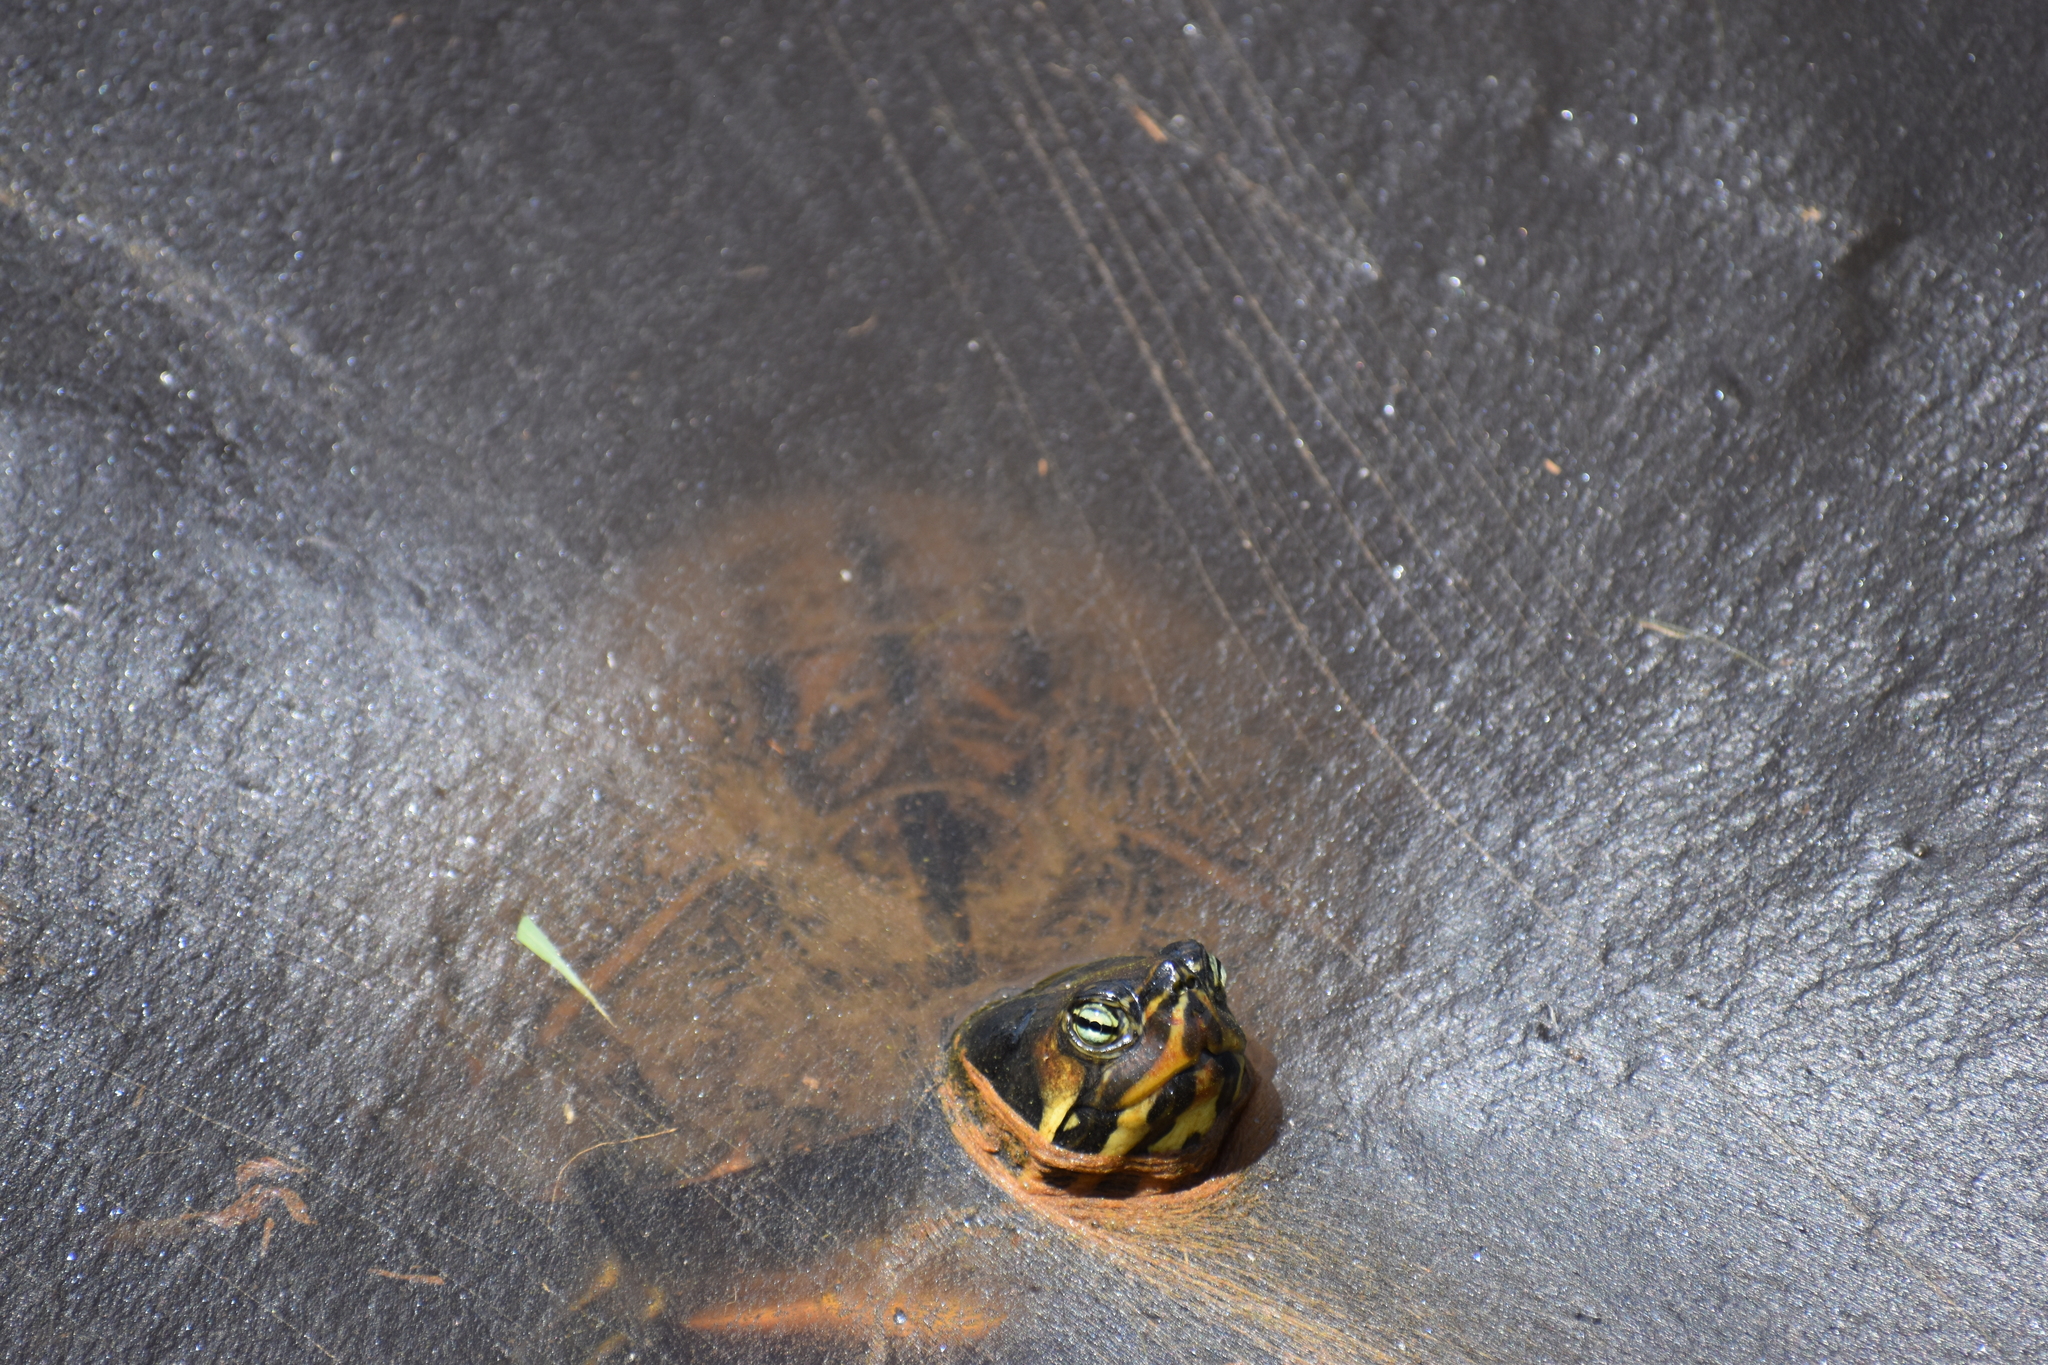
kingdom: Animalia
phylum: Chordata
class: Testudines
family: Emydidae
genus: Trachemys
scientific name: Trachemys scripta
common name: Slider
